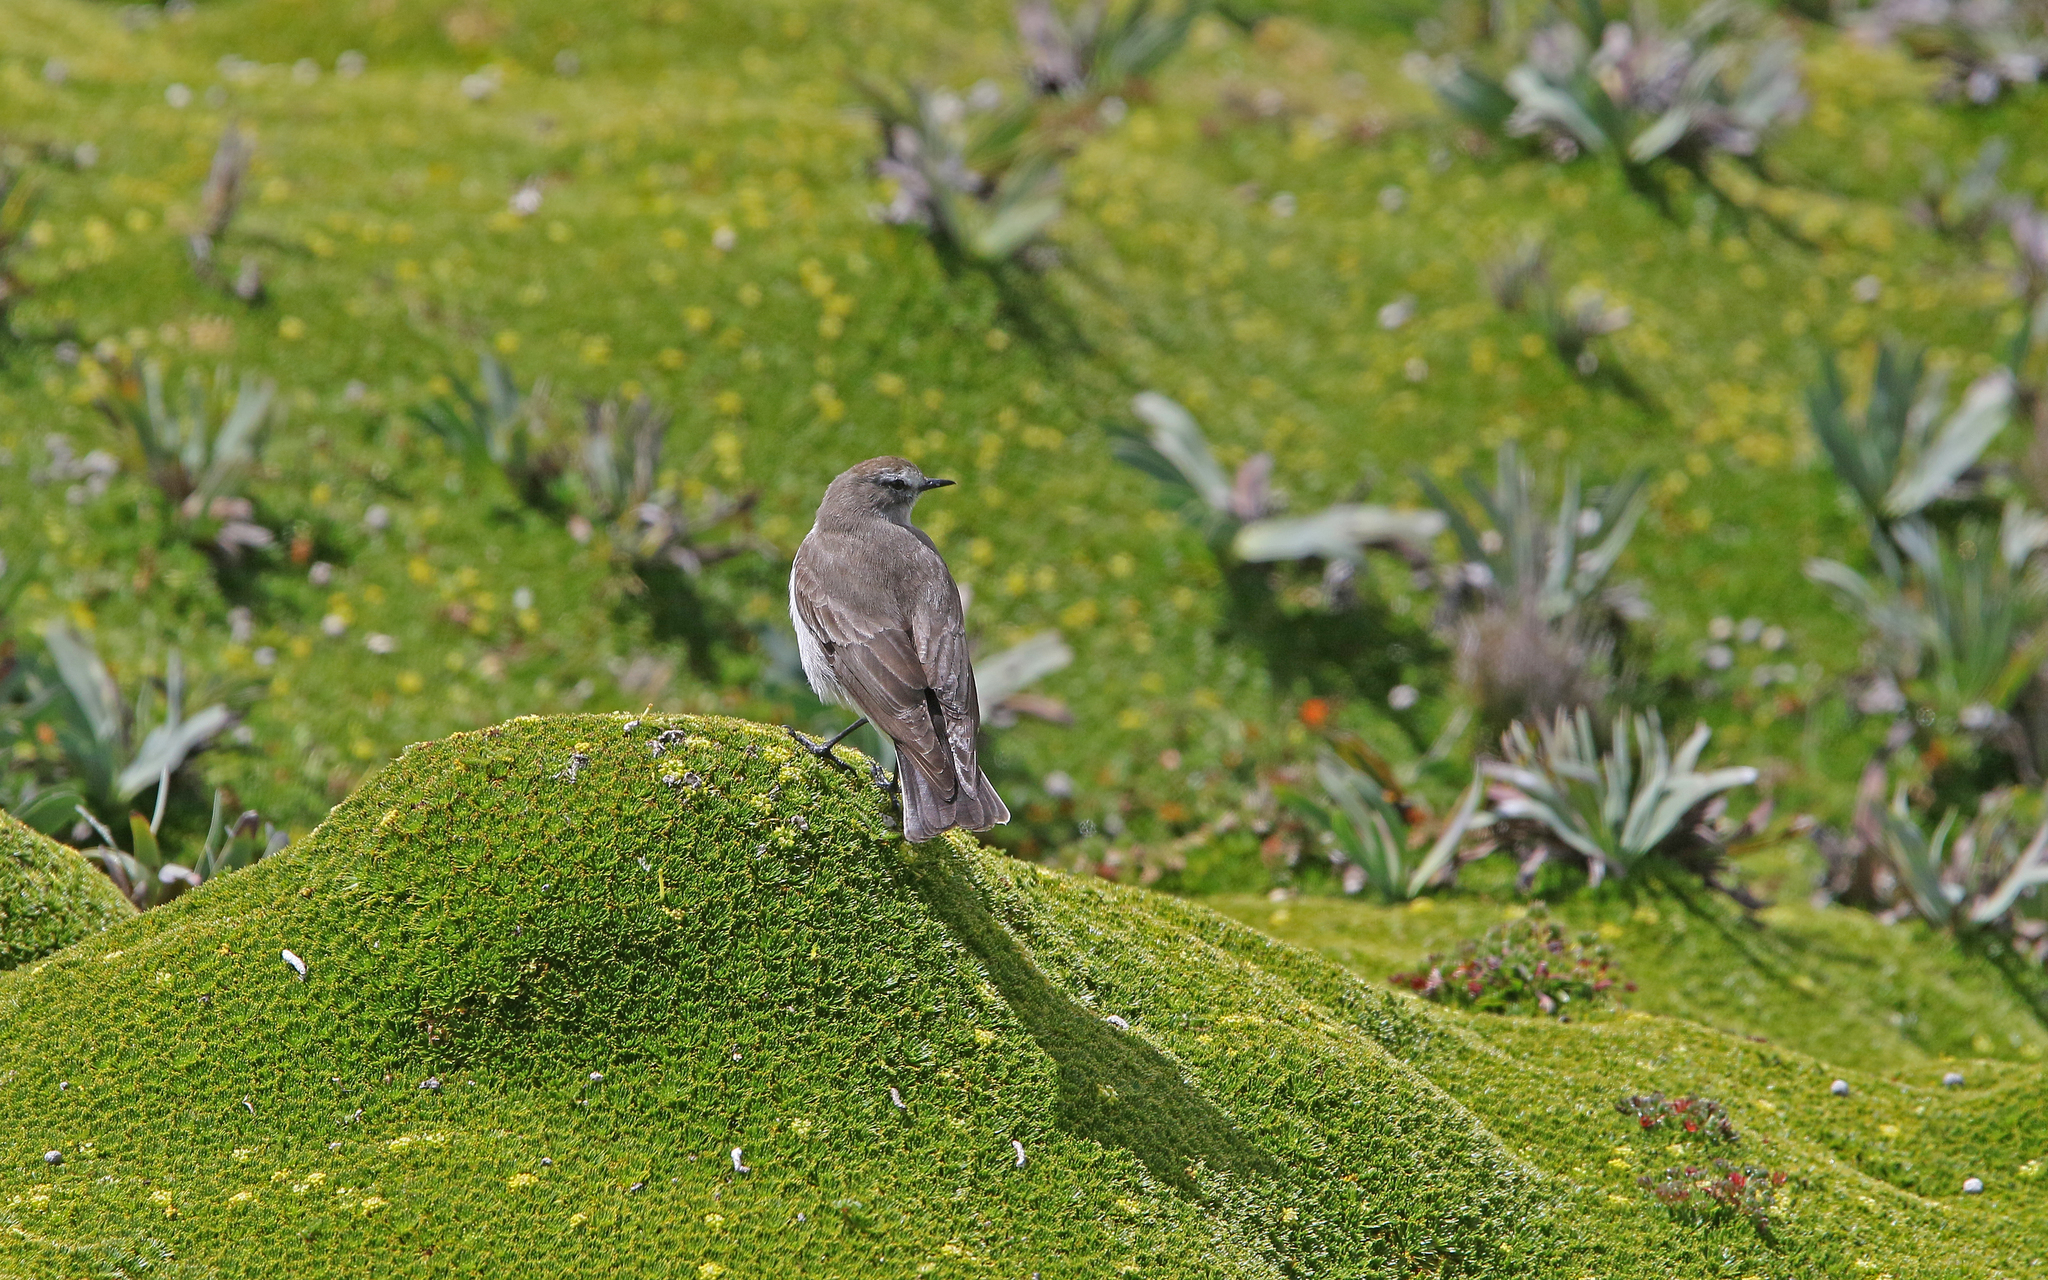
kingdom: Animalia
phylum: Chordata
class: Aves
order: Passeriformes
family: Tyrannidae
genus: Muscisaxicola
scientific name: Muscisaxicola alpinus
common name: Paramo ground tyrant
